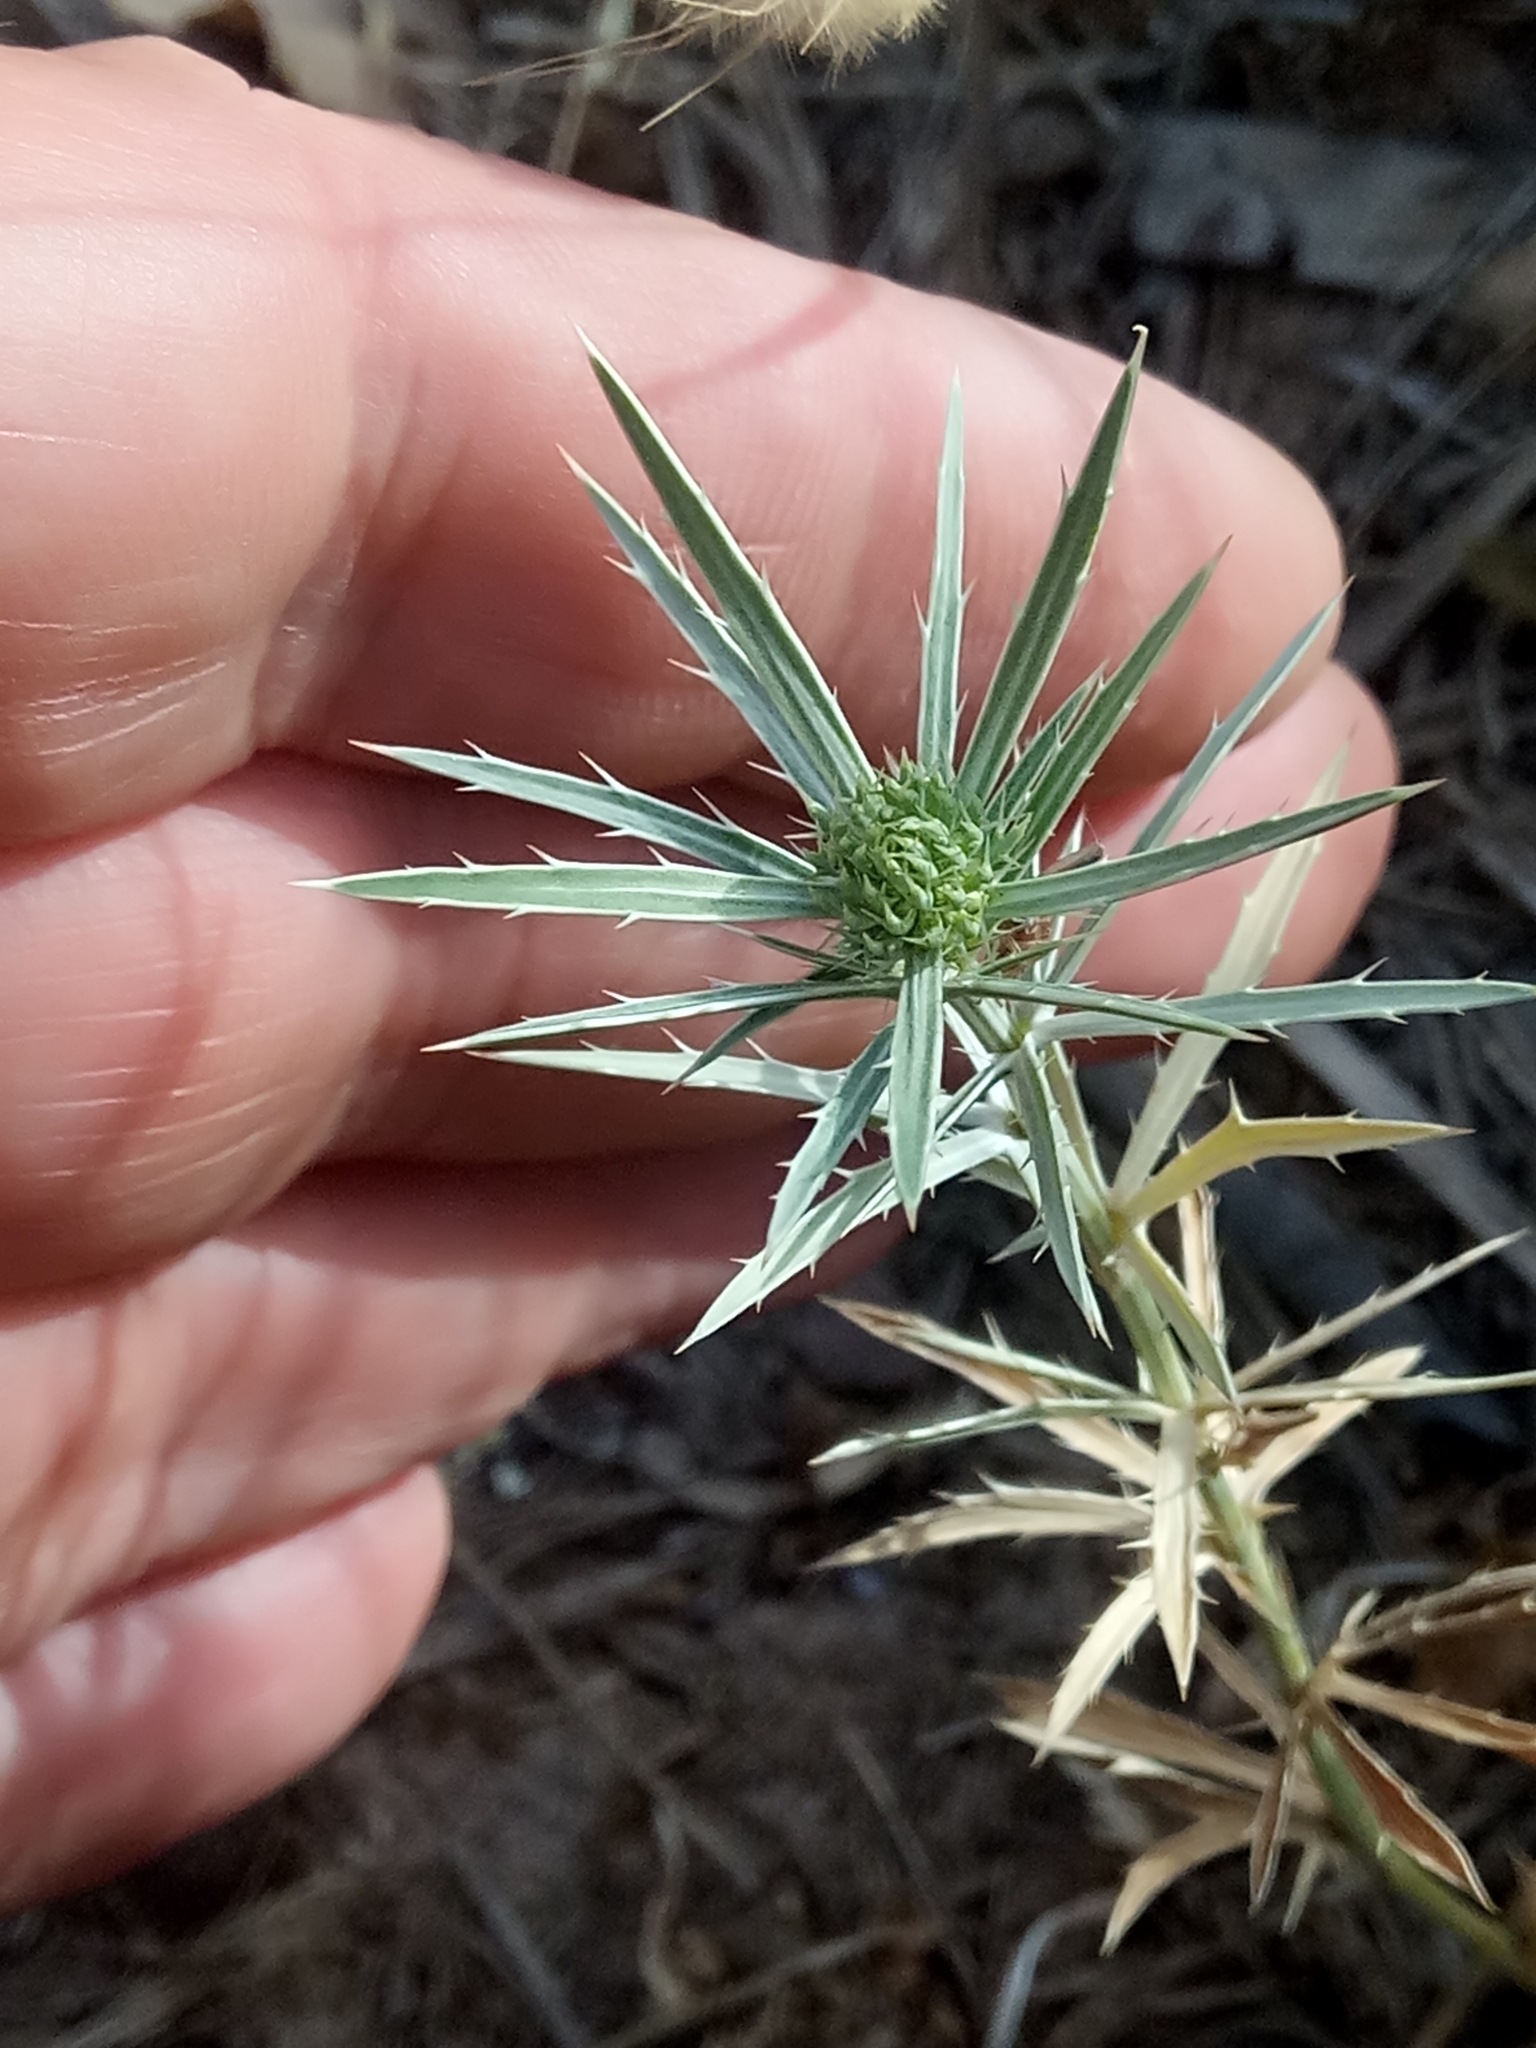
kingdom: Plantae
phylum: Tracheophyta
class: Magnoliopsida
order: Apiales
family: Apiaceae
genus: Eryngium
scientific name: Eryngium tricuspidatum
